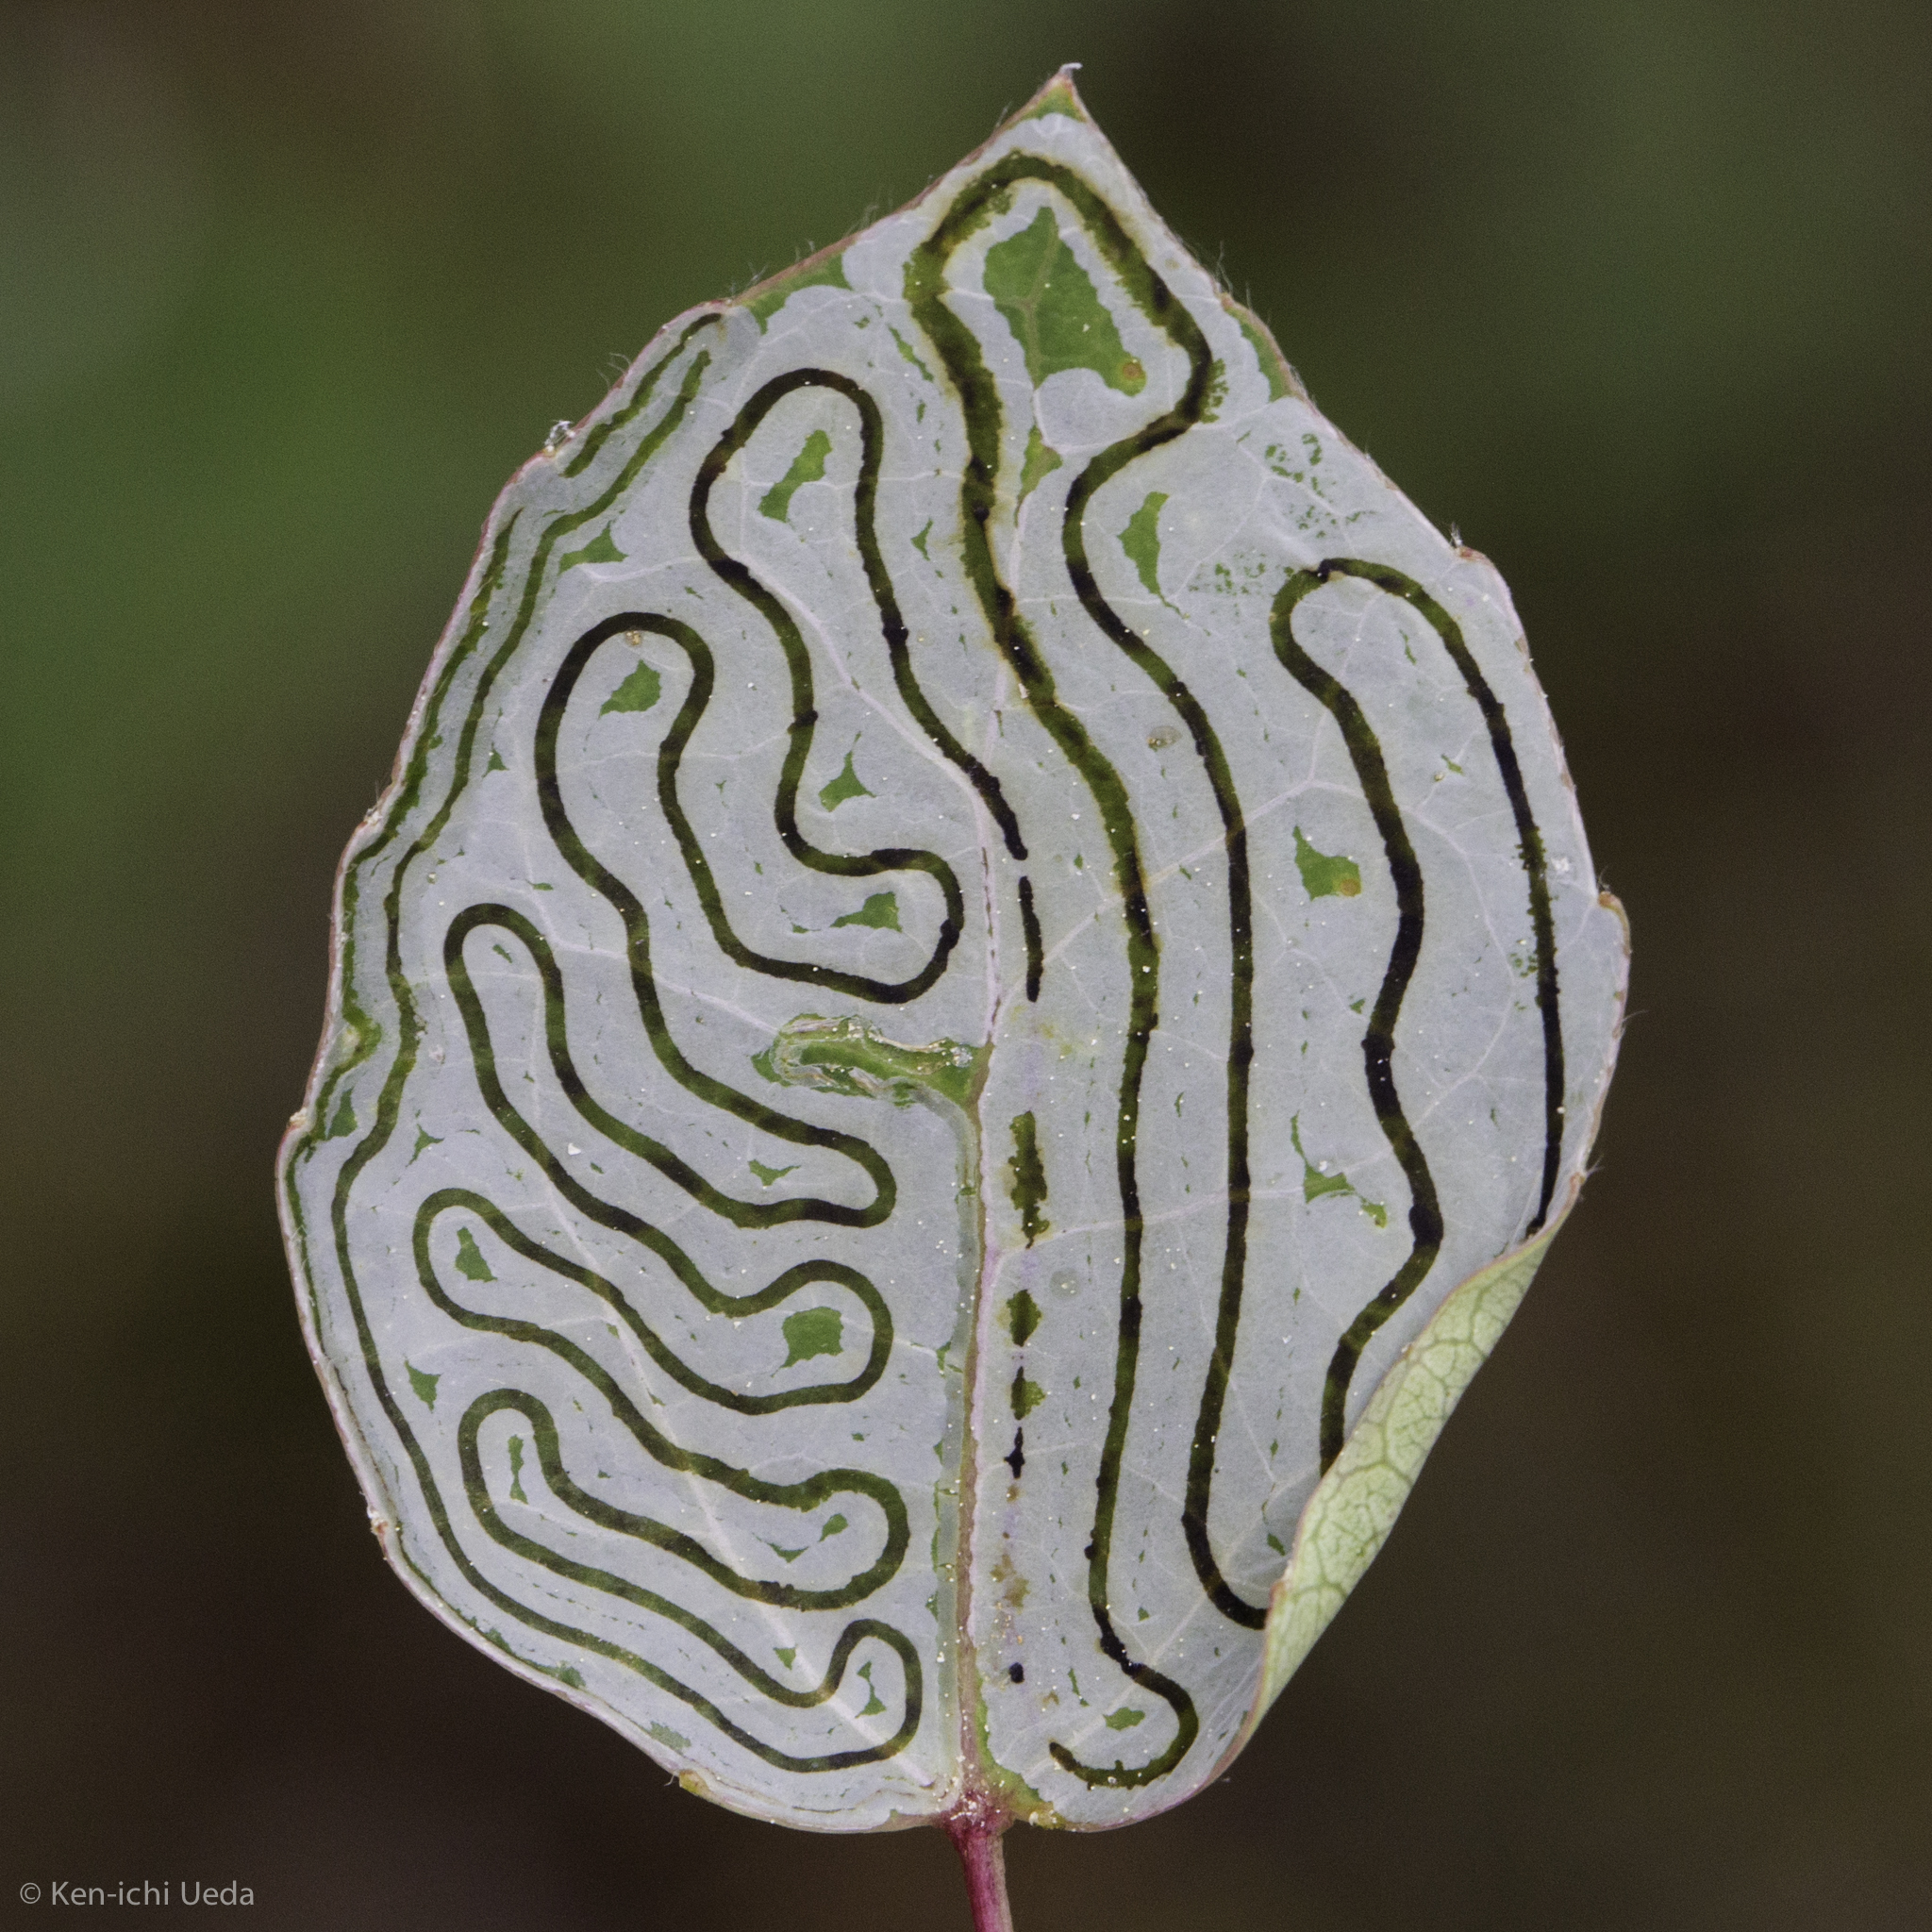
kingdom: Animalia
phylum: Arthropoda
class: Insecta
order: Lepidoptera
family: Gracillariidae
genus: Phyllocnistis
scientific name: Phyllocnistis populiella
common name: Aspen serpentine leafminer moth
